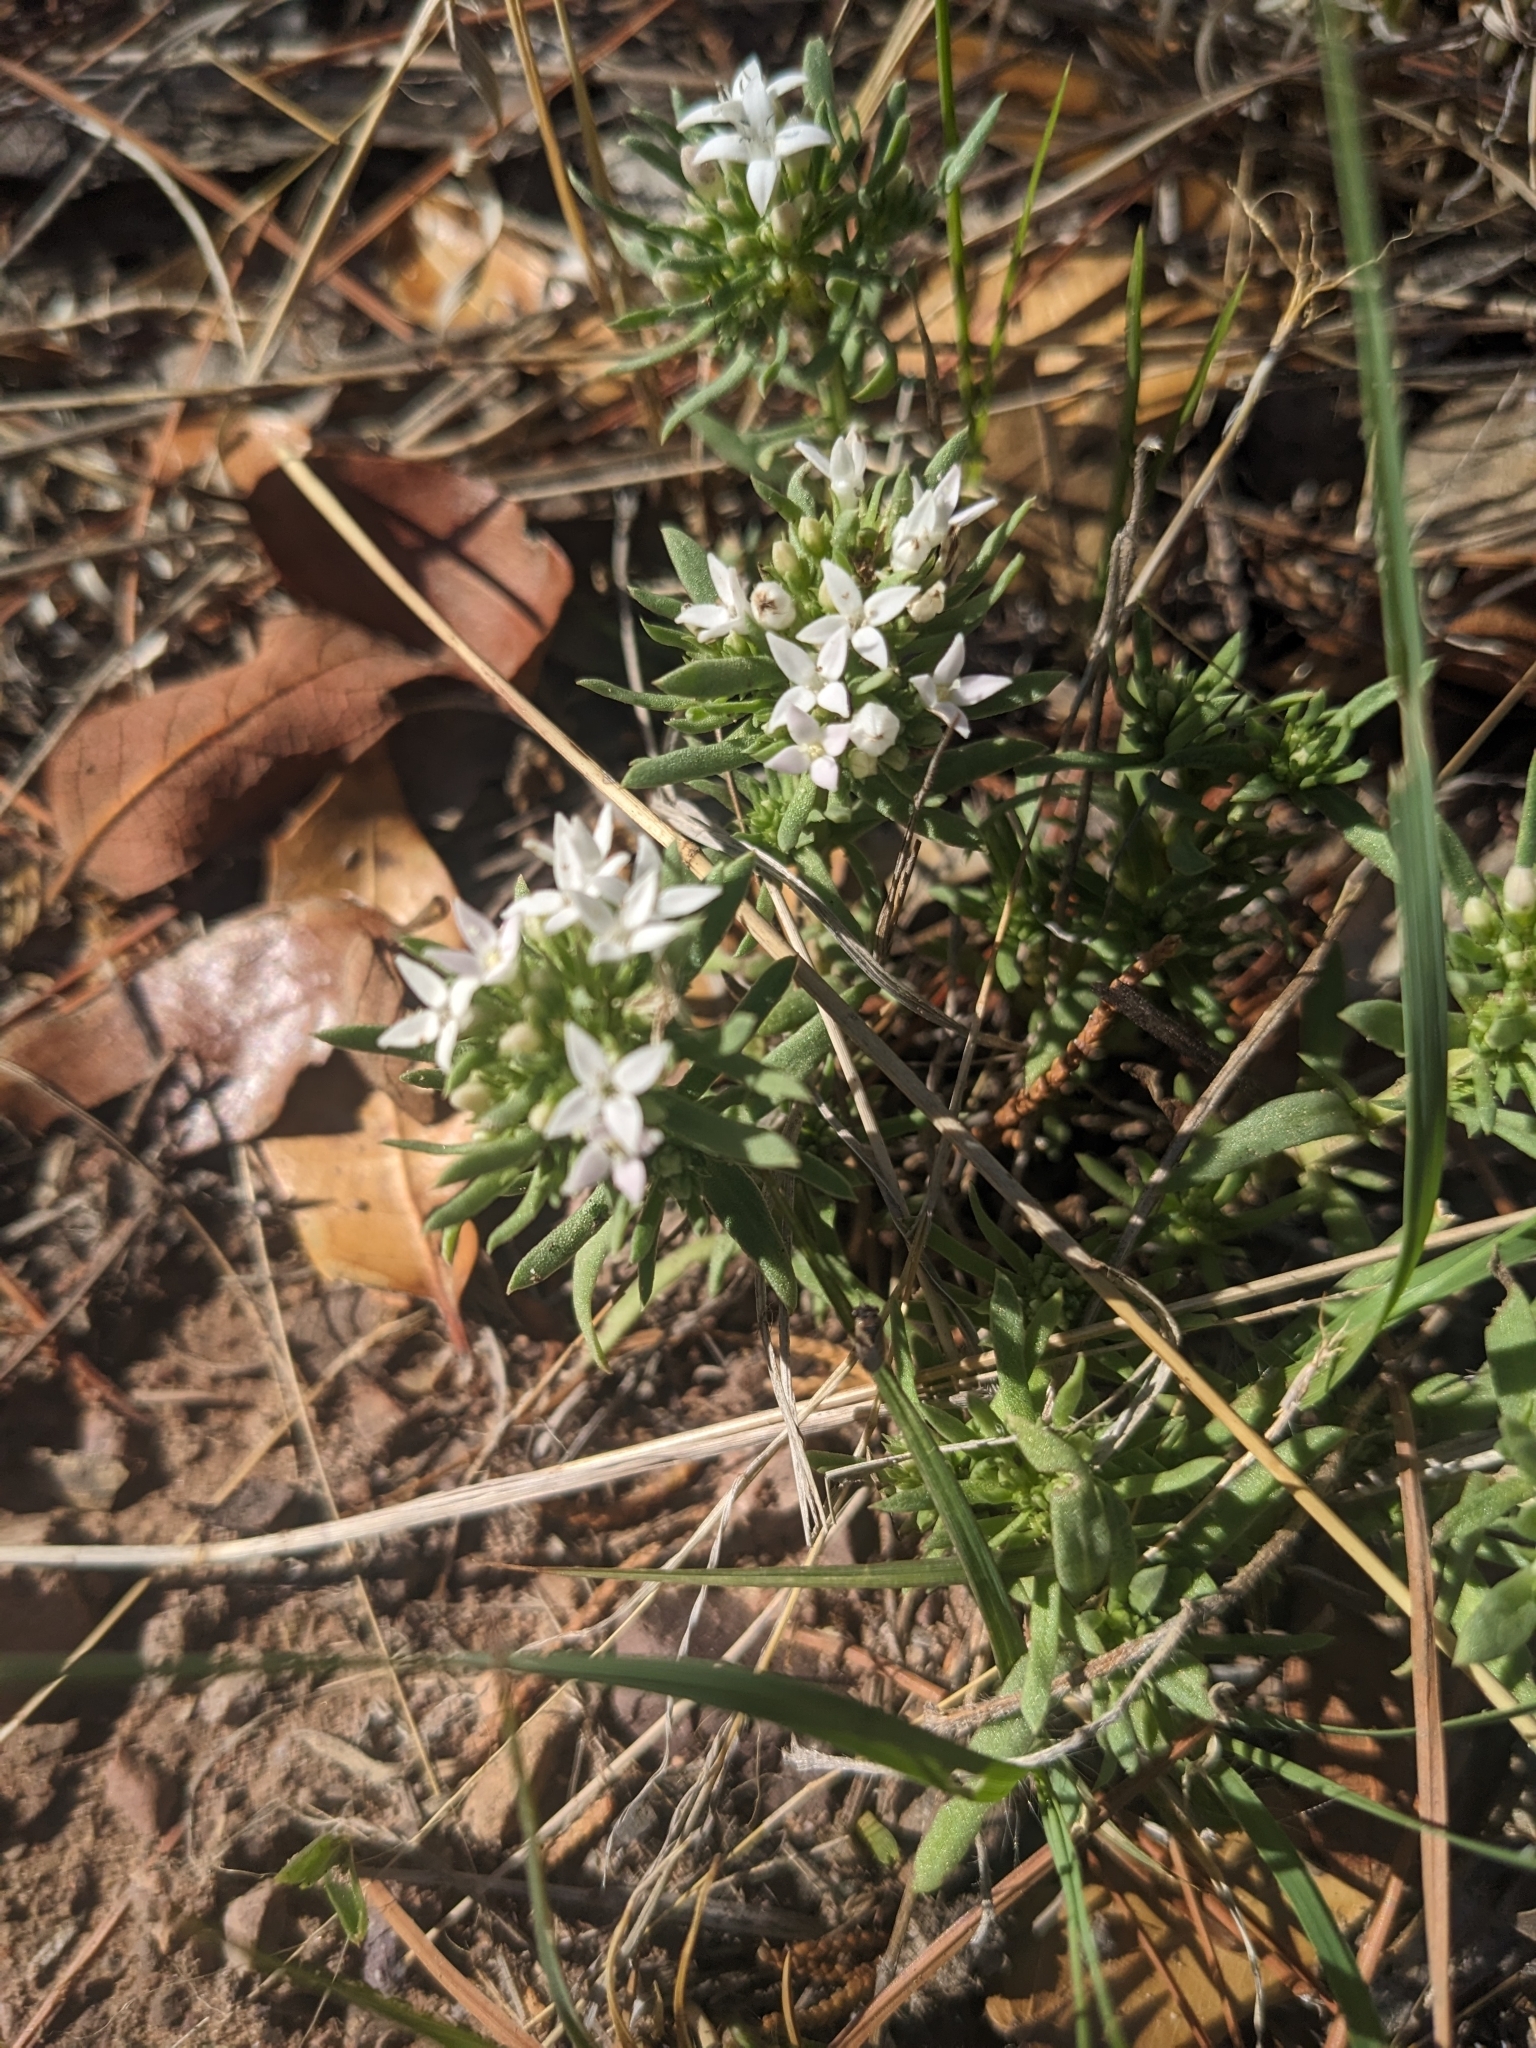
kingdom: Plantae
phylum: Tracheophyta
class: Magnoliopsida
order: Gentianales
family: Rubiaceae
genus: Houstonia
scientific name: Houstonia wrightii
